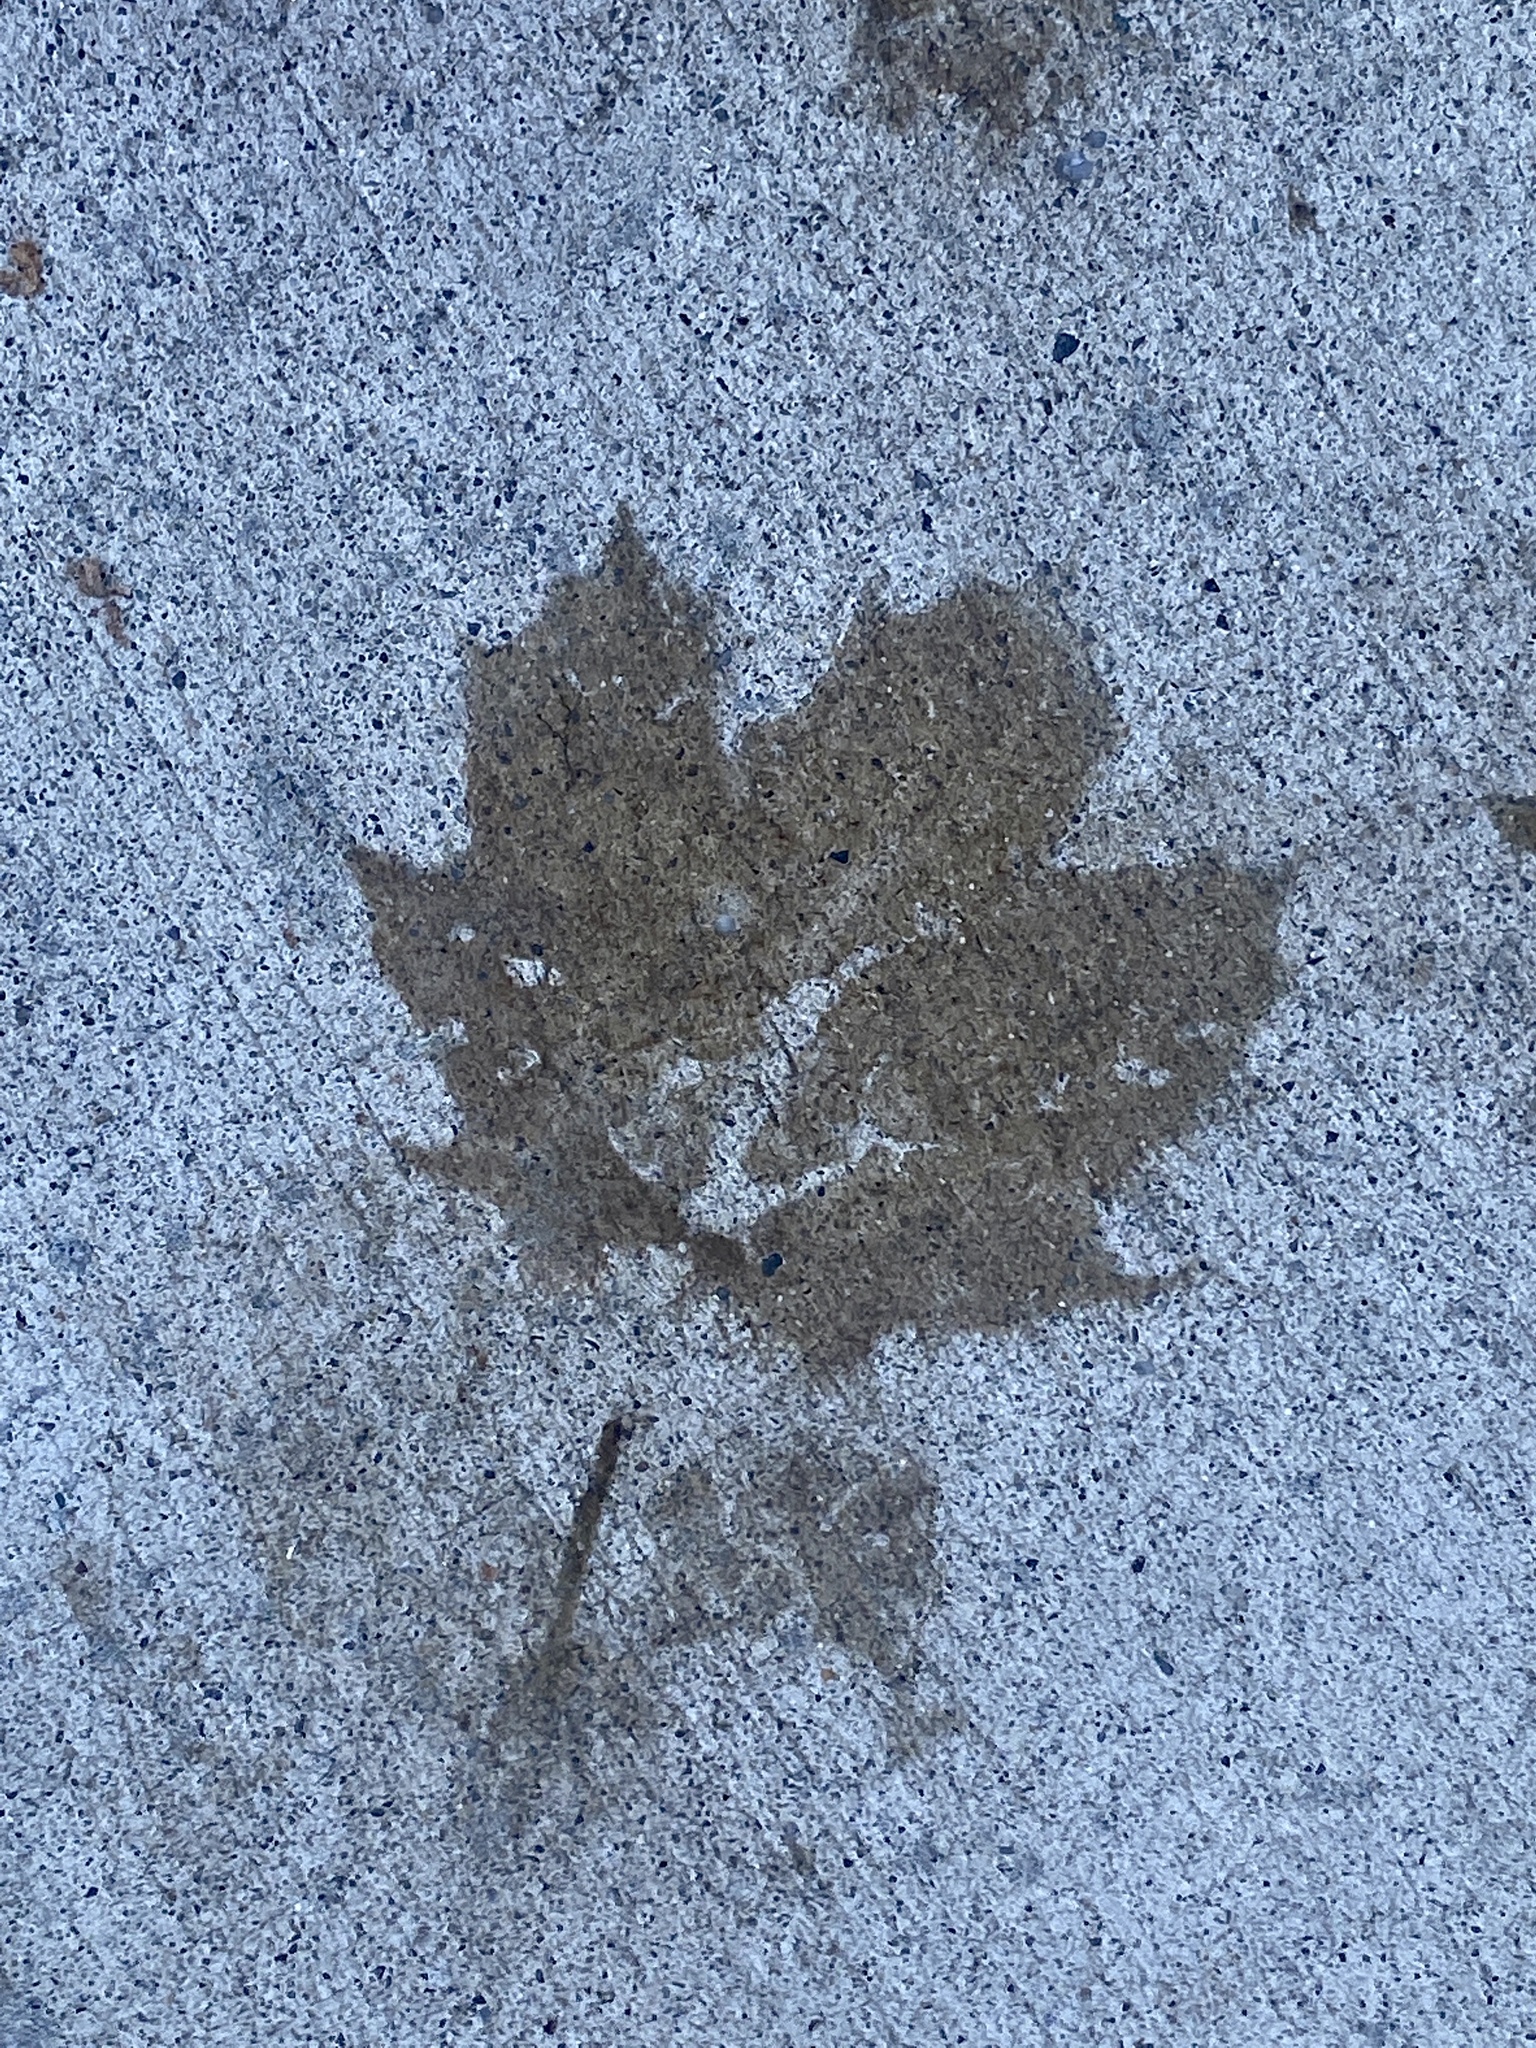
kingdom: Plantae
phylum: Tracheophyta
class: Magnoliopsida
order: Sapindales
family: Sapindaceae
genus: Acer
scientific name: Acer platanoides
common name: Norway maple
